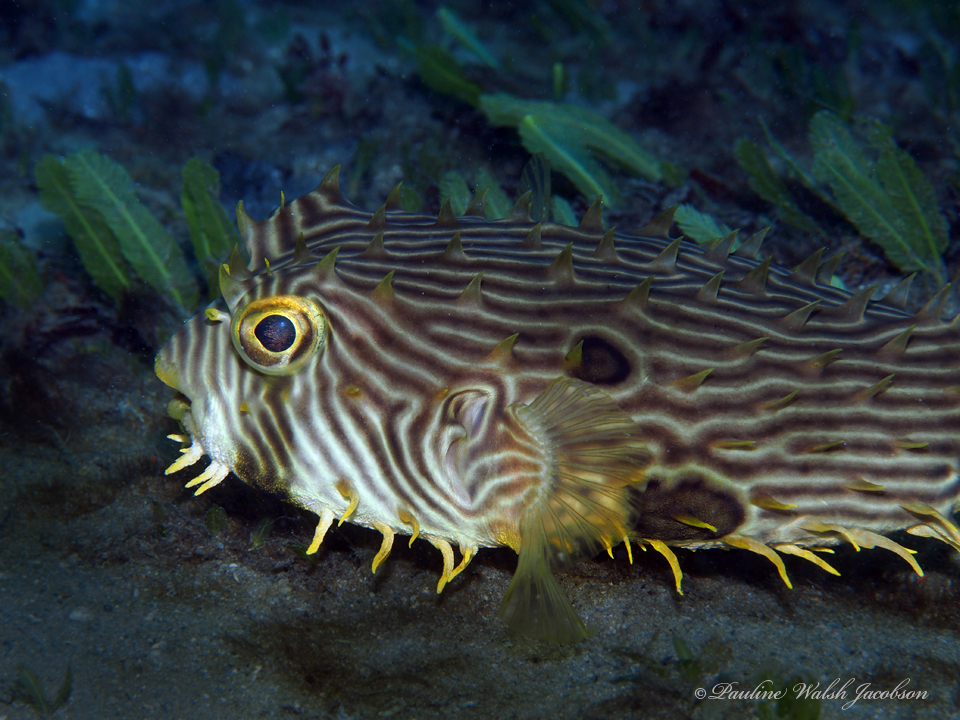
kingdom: Animalia
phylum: Chordata
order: Tetraodontiformes
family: Diodontidae
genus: Chilomycterus
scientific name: Chilomycterus schoepfii
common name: Striped burrfish
